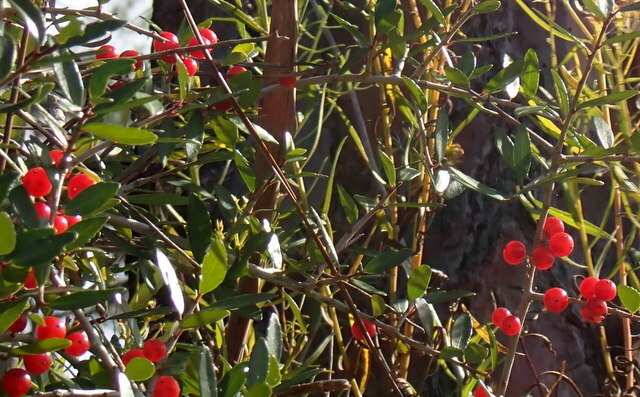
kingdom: Plantae
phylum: Tracheophyta
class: Magnoliopsida
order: Aquifoliales
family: Aquifoliaceae
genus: Ilex
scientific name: Ilex vomitoria
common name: Yaupon holly
